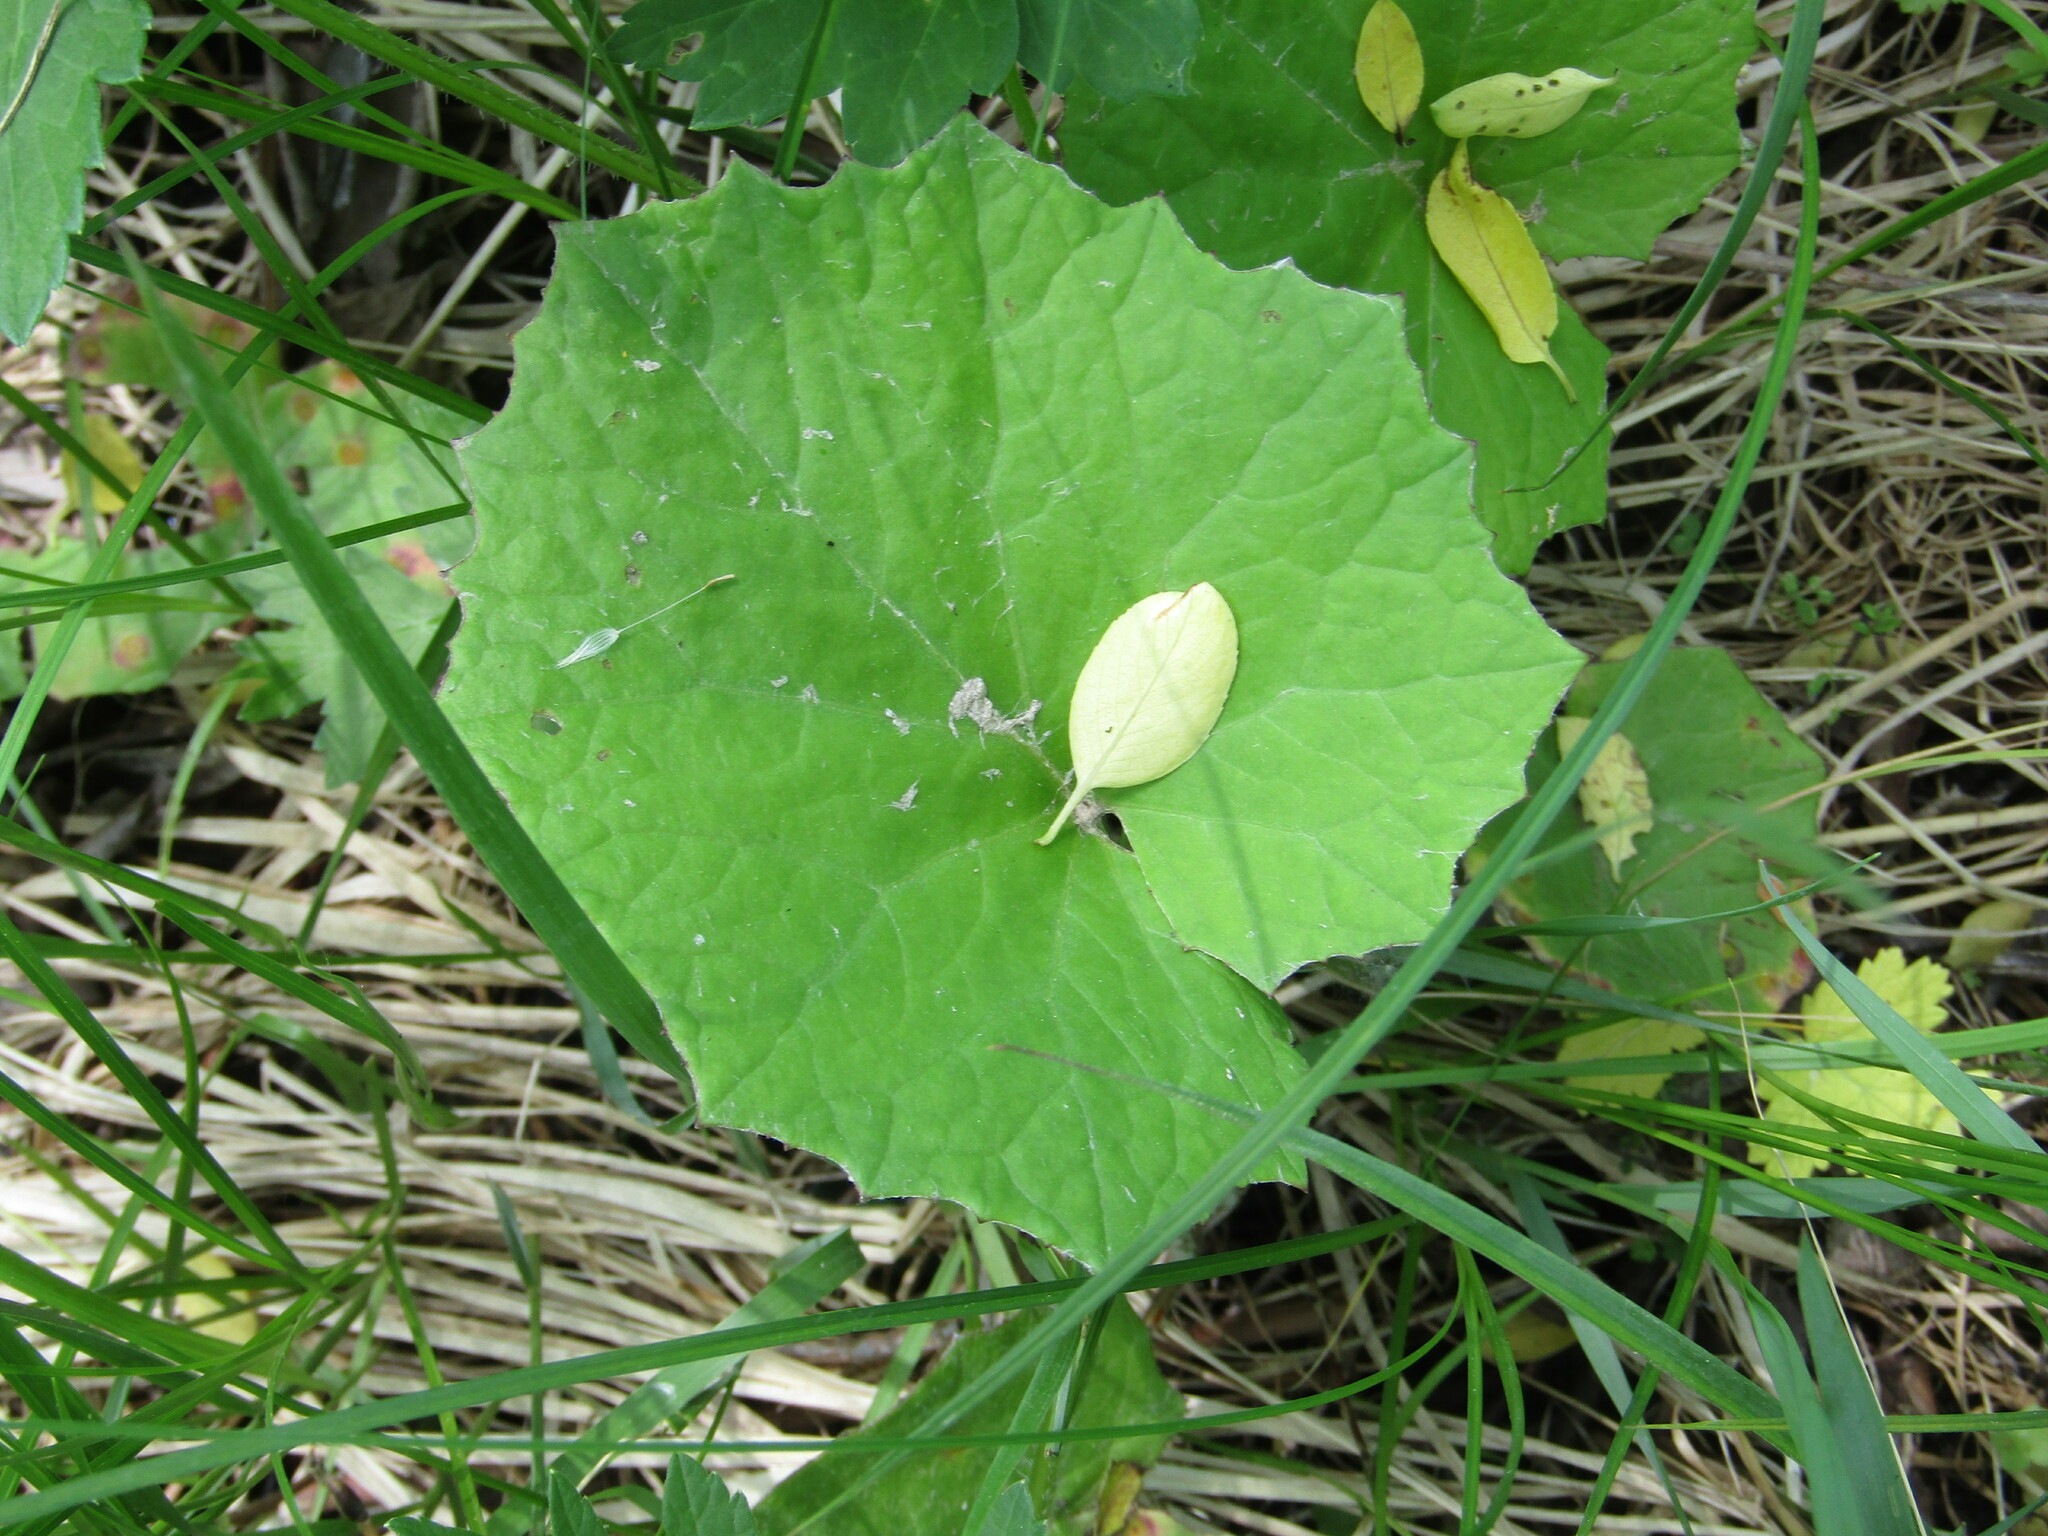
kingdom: Plantae
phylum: Tracheophyta
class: Magnoliopsida
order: Asterales
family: Asteraceae
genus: Tussilago
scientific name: Tussilago farfara
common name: Coltsfoot
